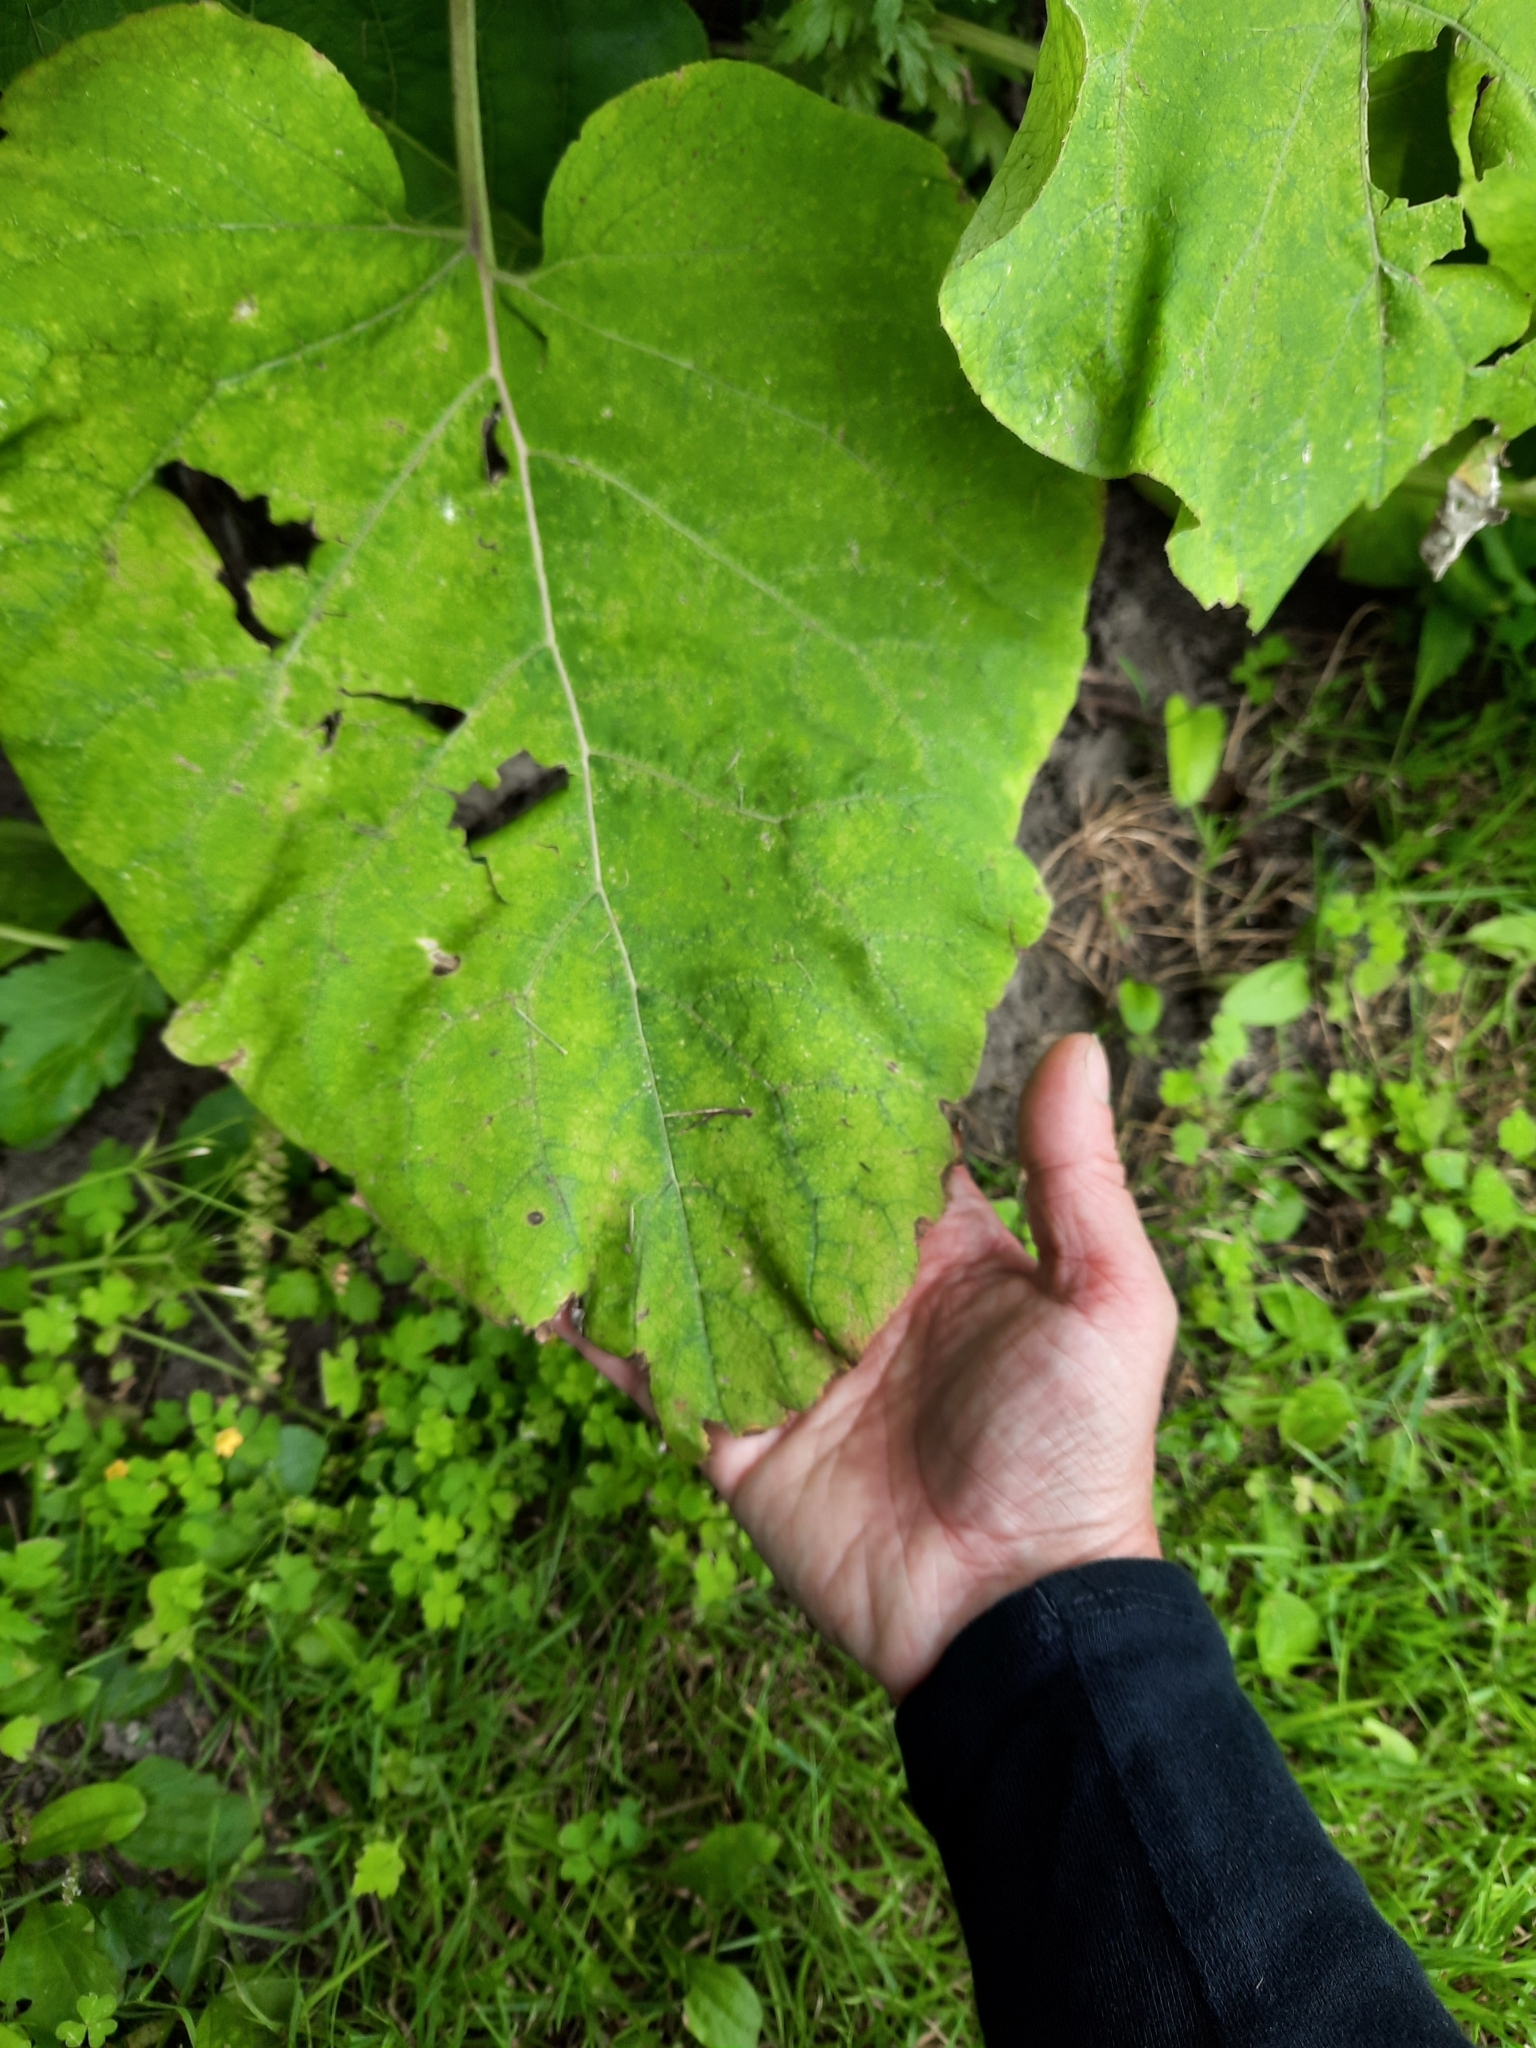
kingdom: Plantae
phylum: Tracheophyta
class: Magnoliopsida
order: Asterales
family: Asteraceae
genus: Arctium
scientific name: Arctium lappa
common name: Greater burdock
